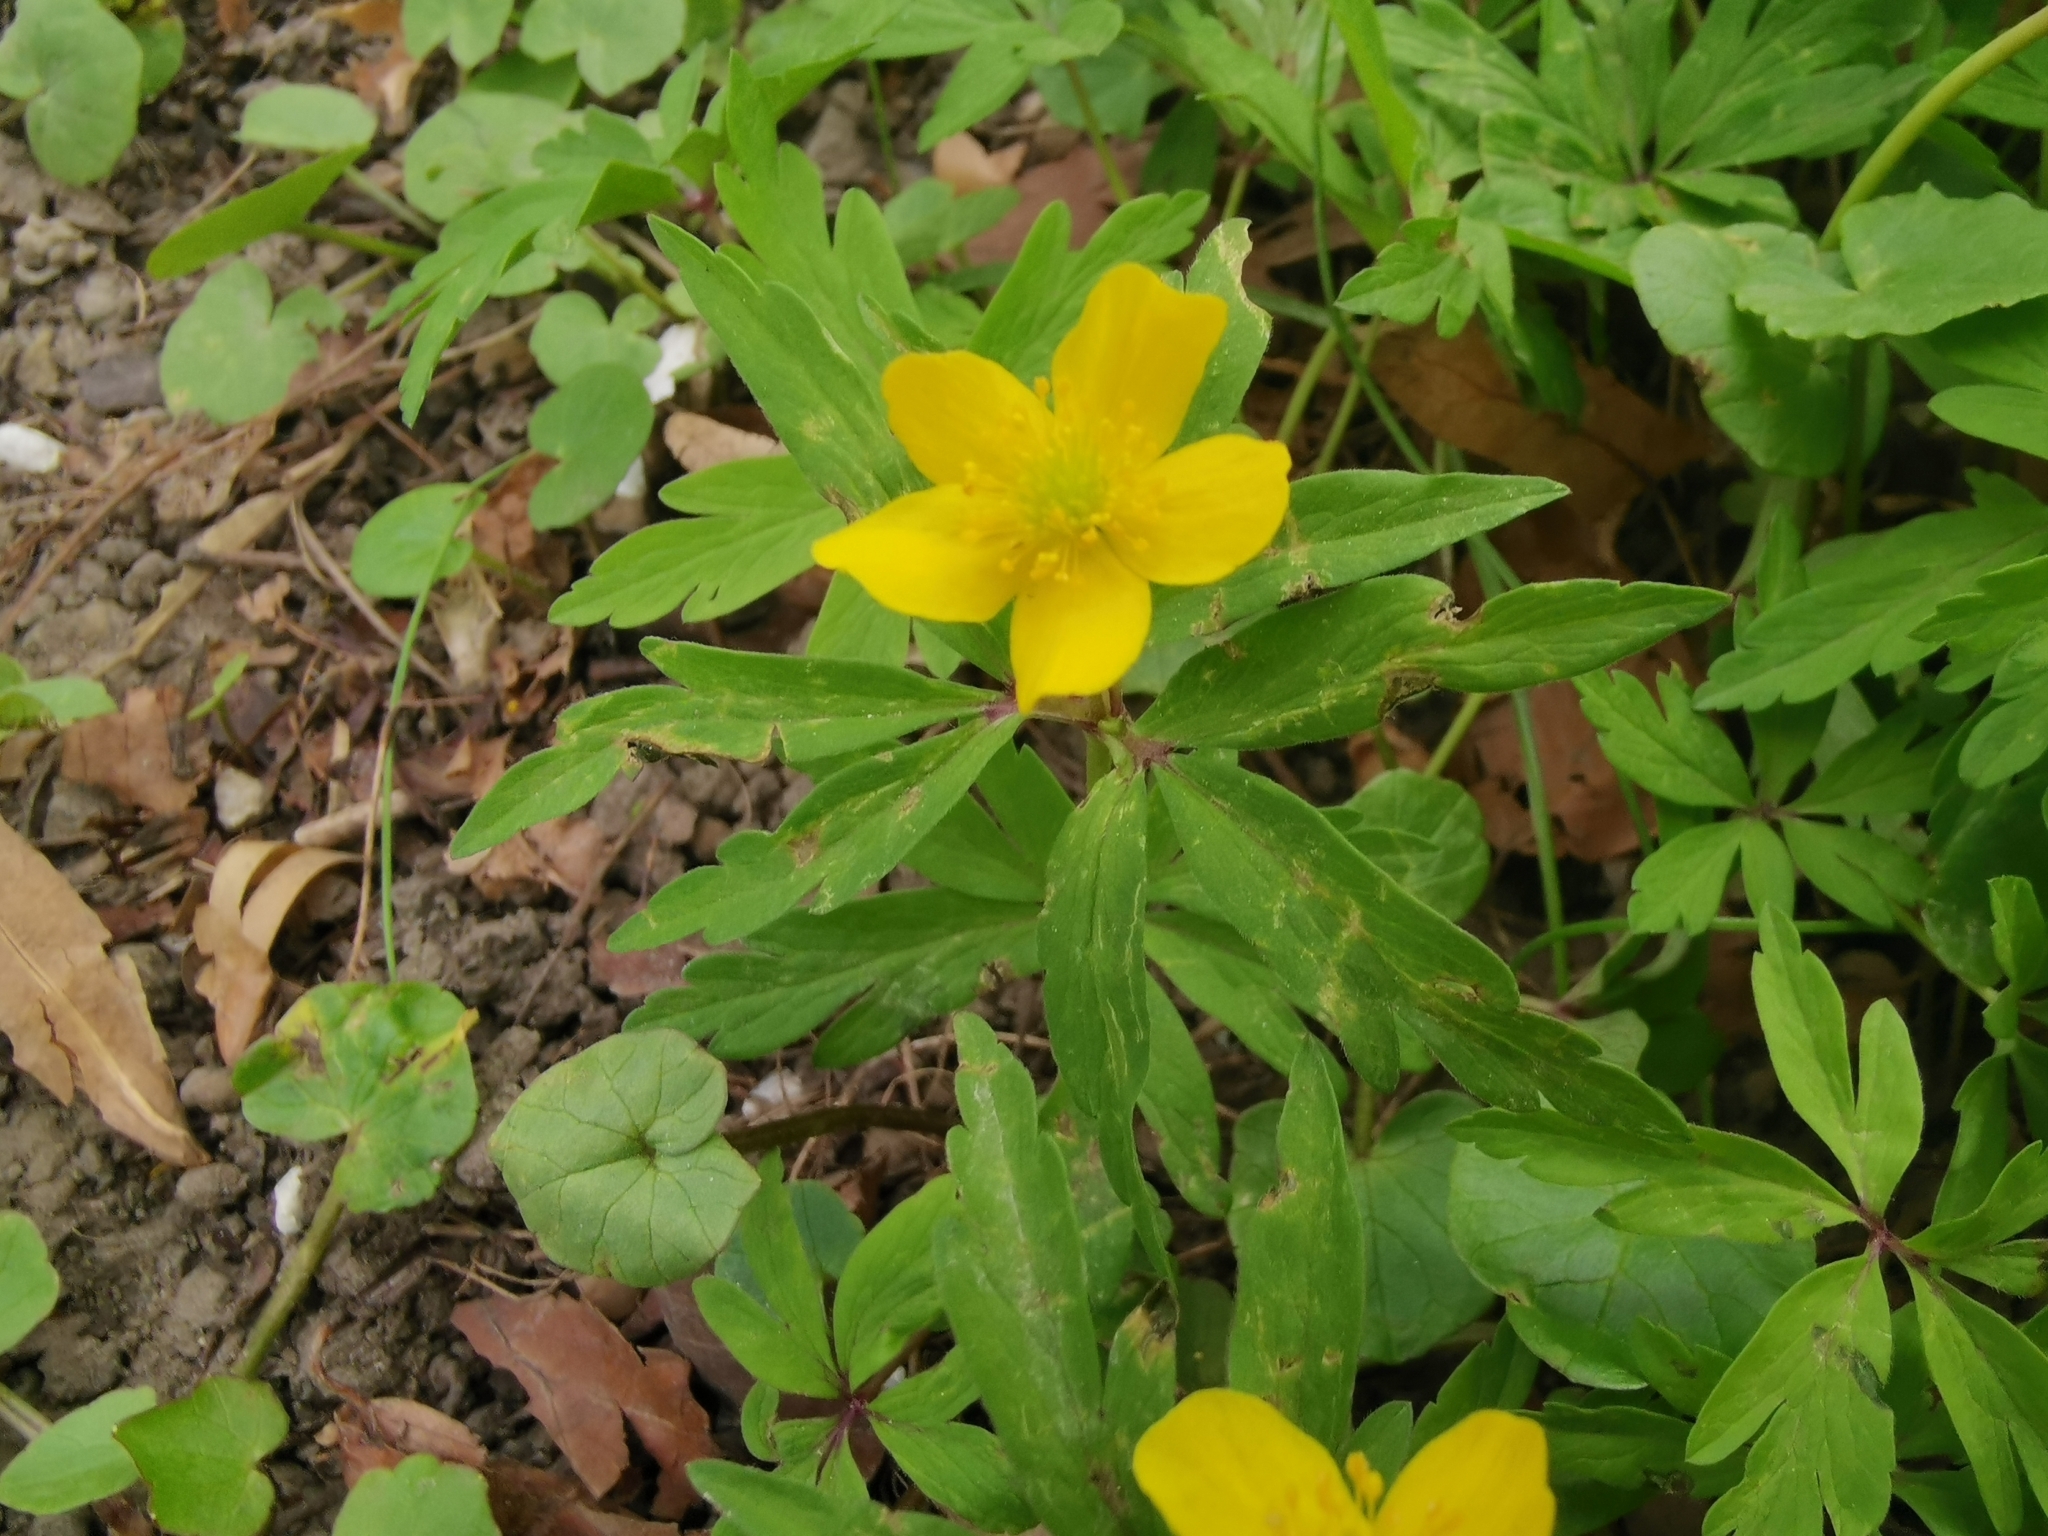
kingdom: Plantae
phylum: Tracheophyta
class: Magnoliopsida
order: Ranunculales
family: Ranunculaceae
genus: Anemone
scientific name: Anemone ranunculoides
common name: Yellow anemone
